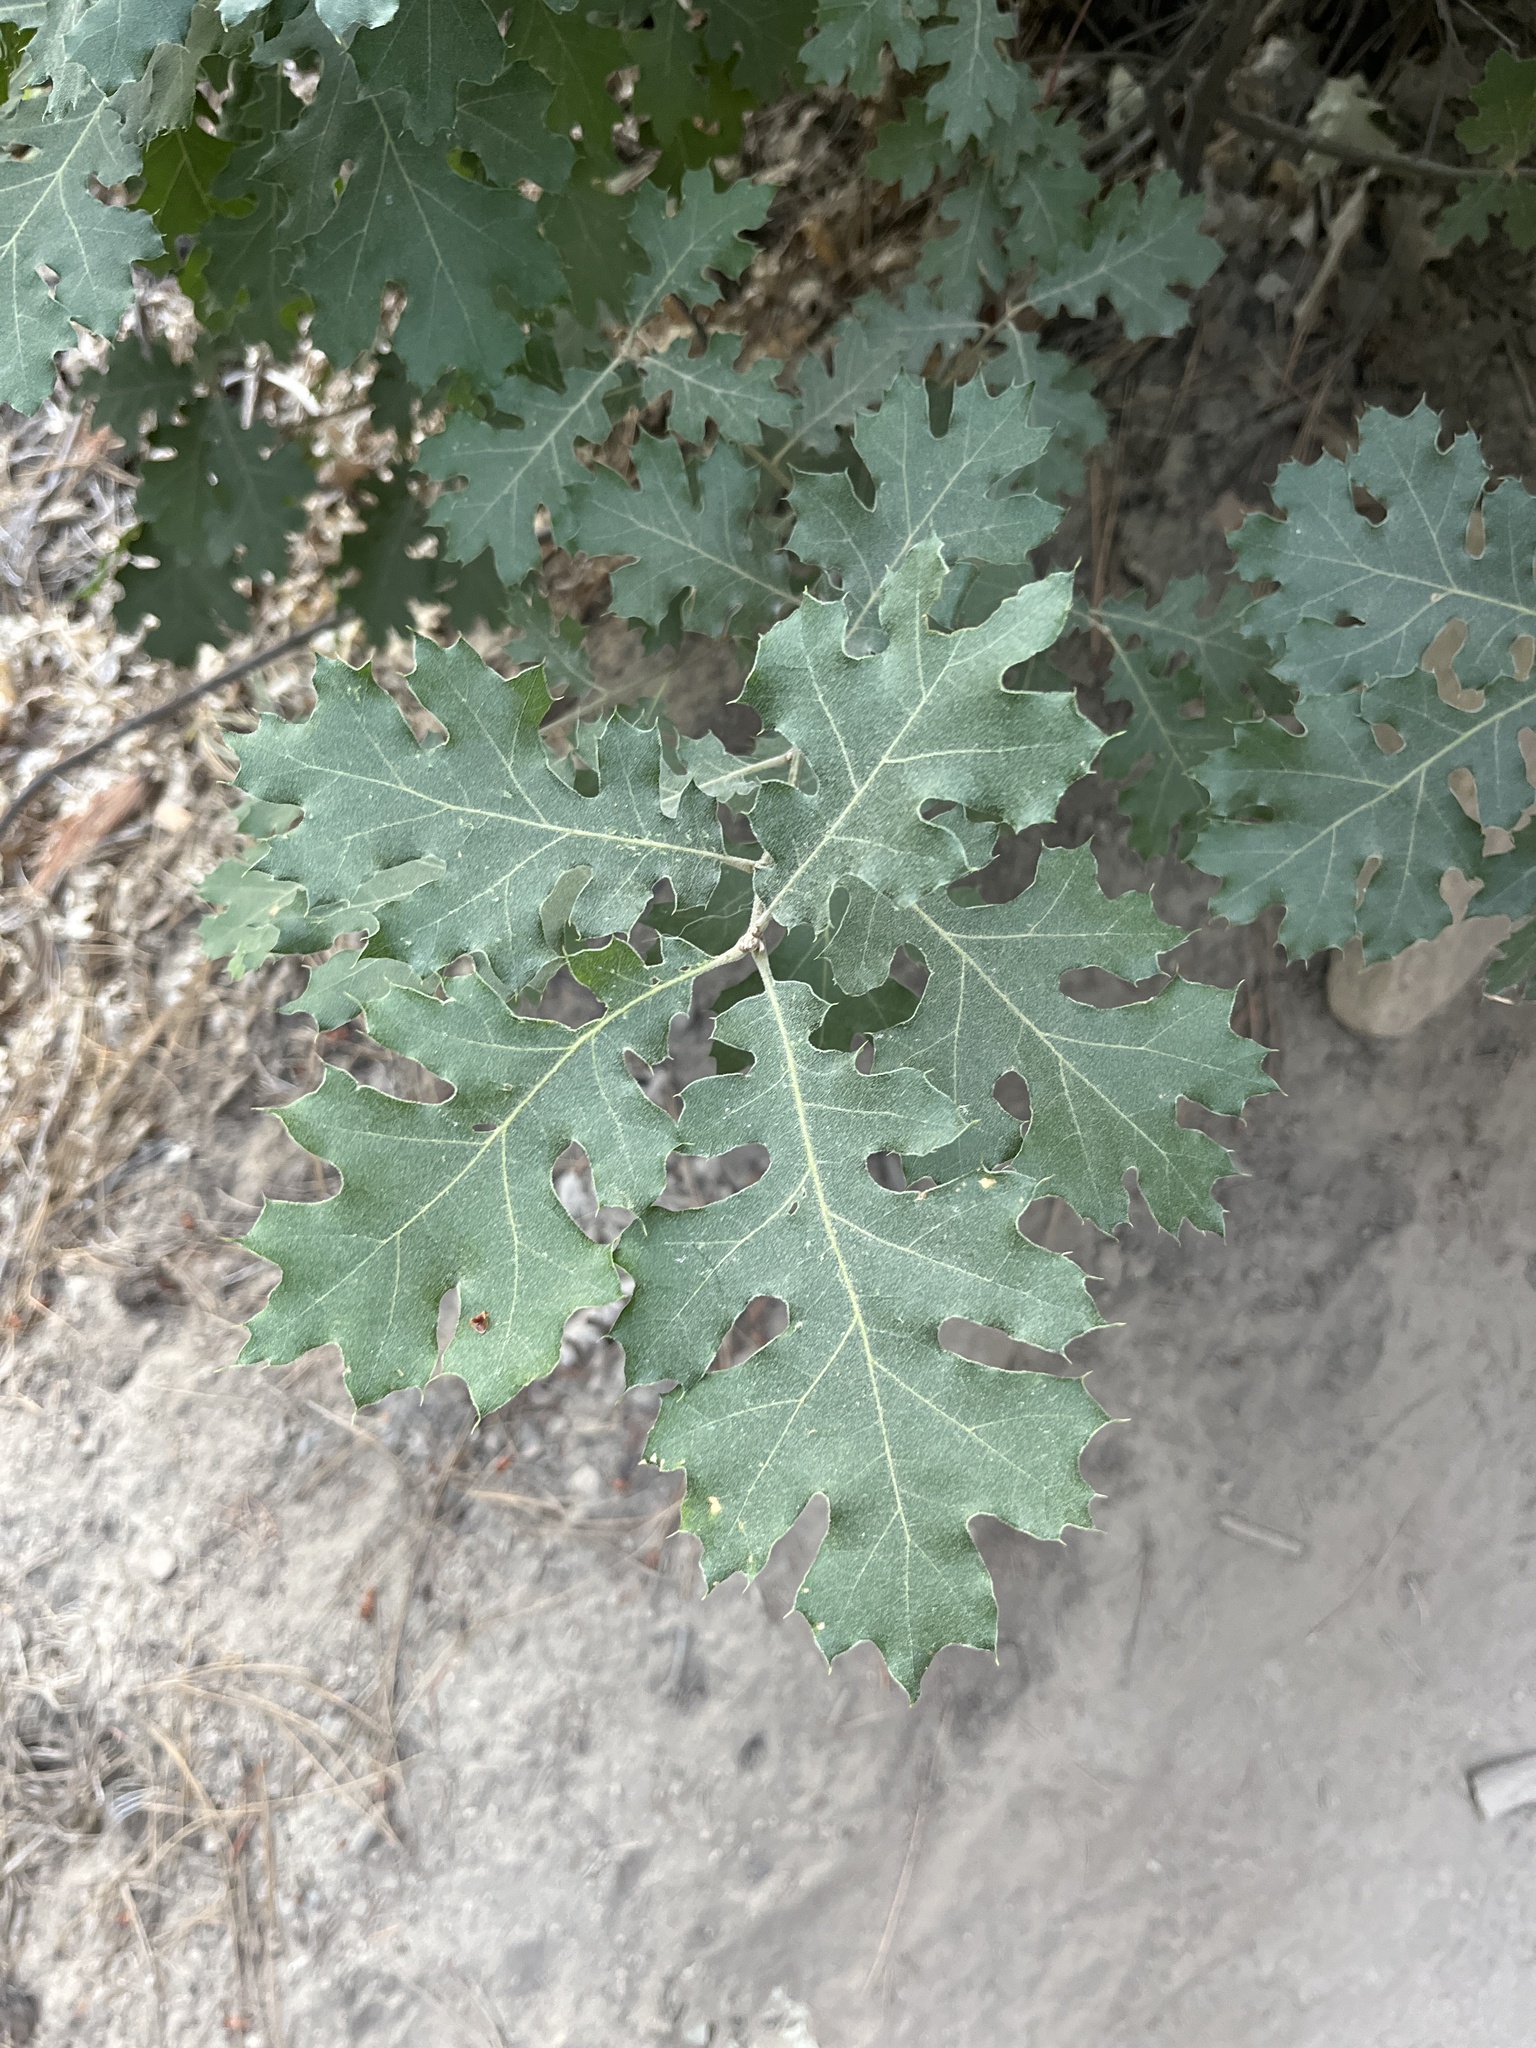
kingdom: Plantae
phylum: Tracheophyta
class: Magnoliopsida
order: Fagales
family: Fagaceae
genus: Quercus
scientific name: Quercus kelloggii
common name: California black oak
